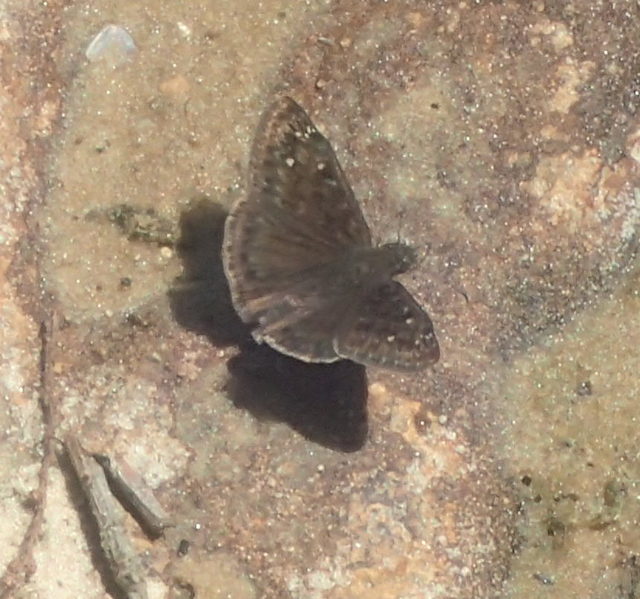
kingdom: Animalia
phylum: Arthropoda
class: Insecta
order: Lepidoptera
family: Hesperiidae
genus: Erynnis
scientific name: Erynnis horatius
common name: Horace's duskywing
